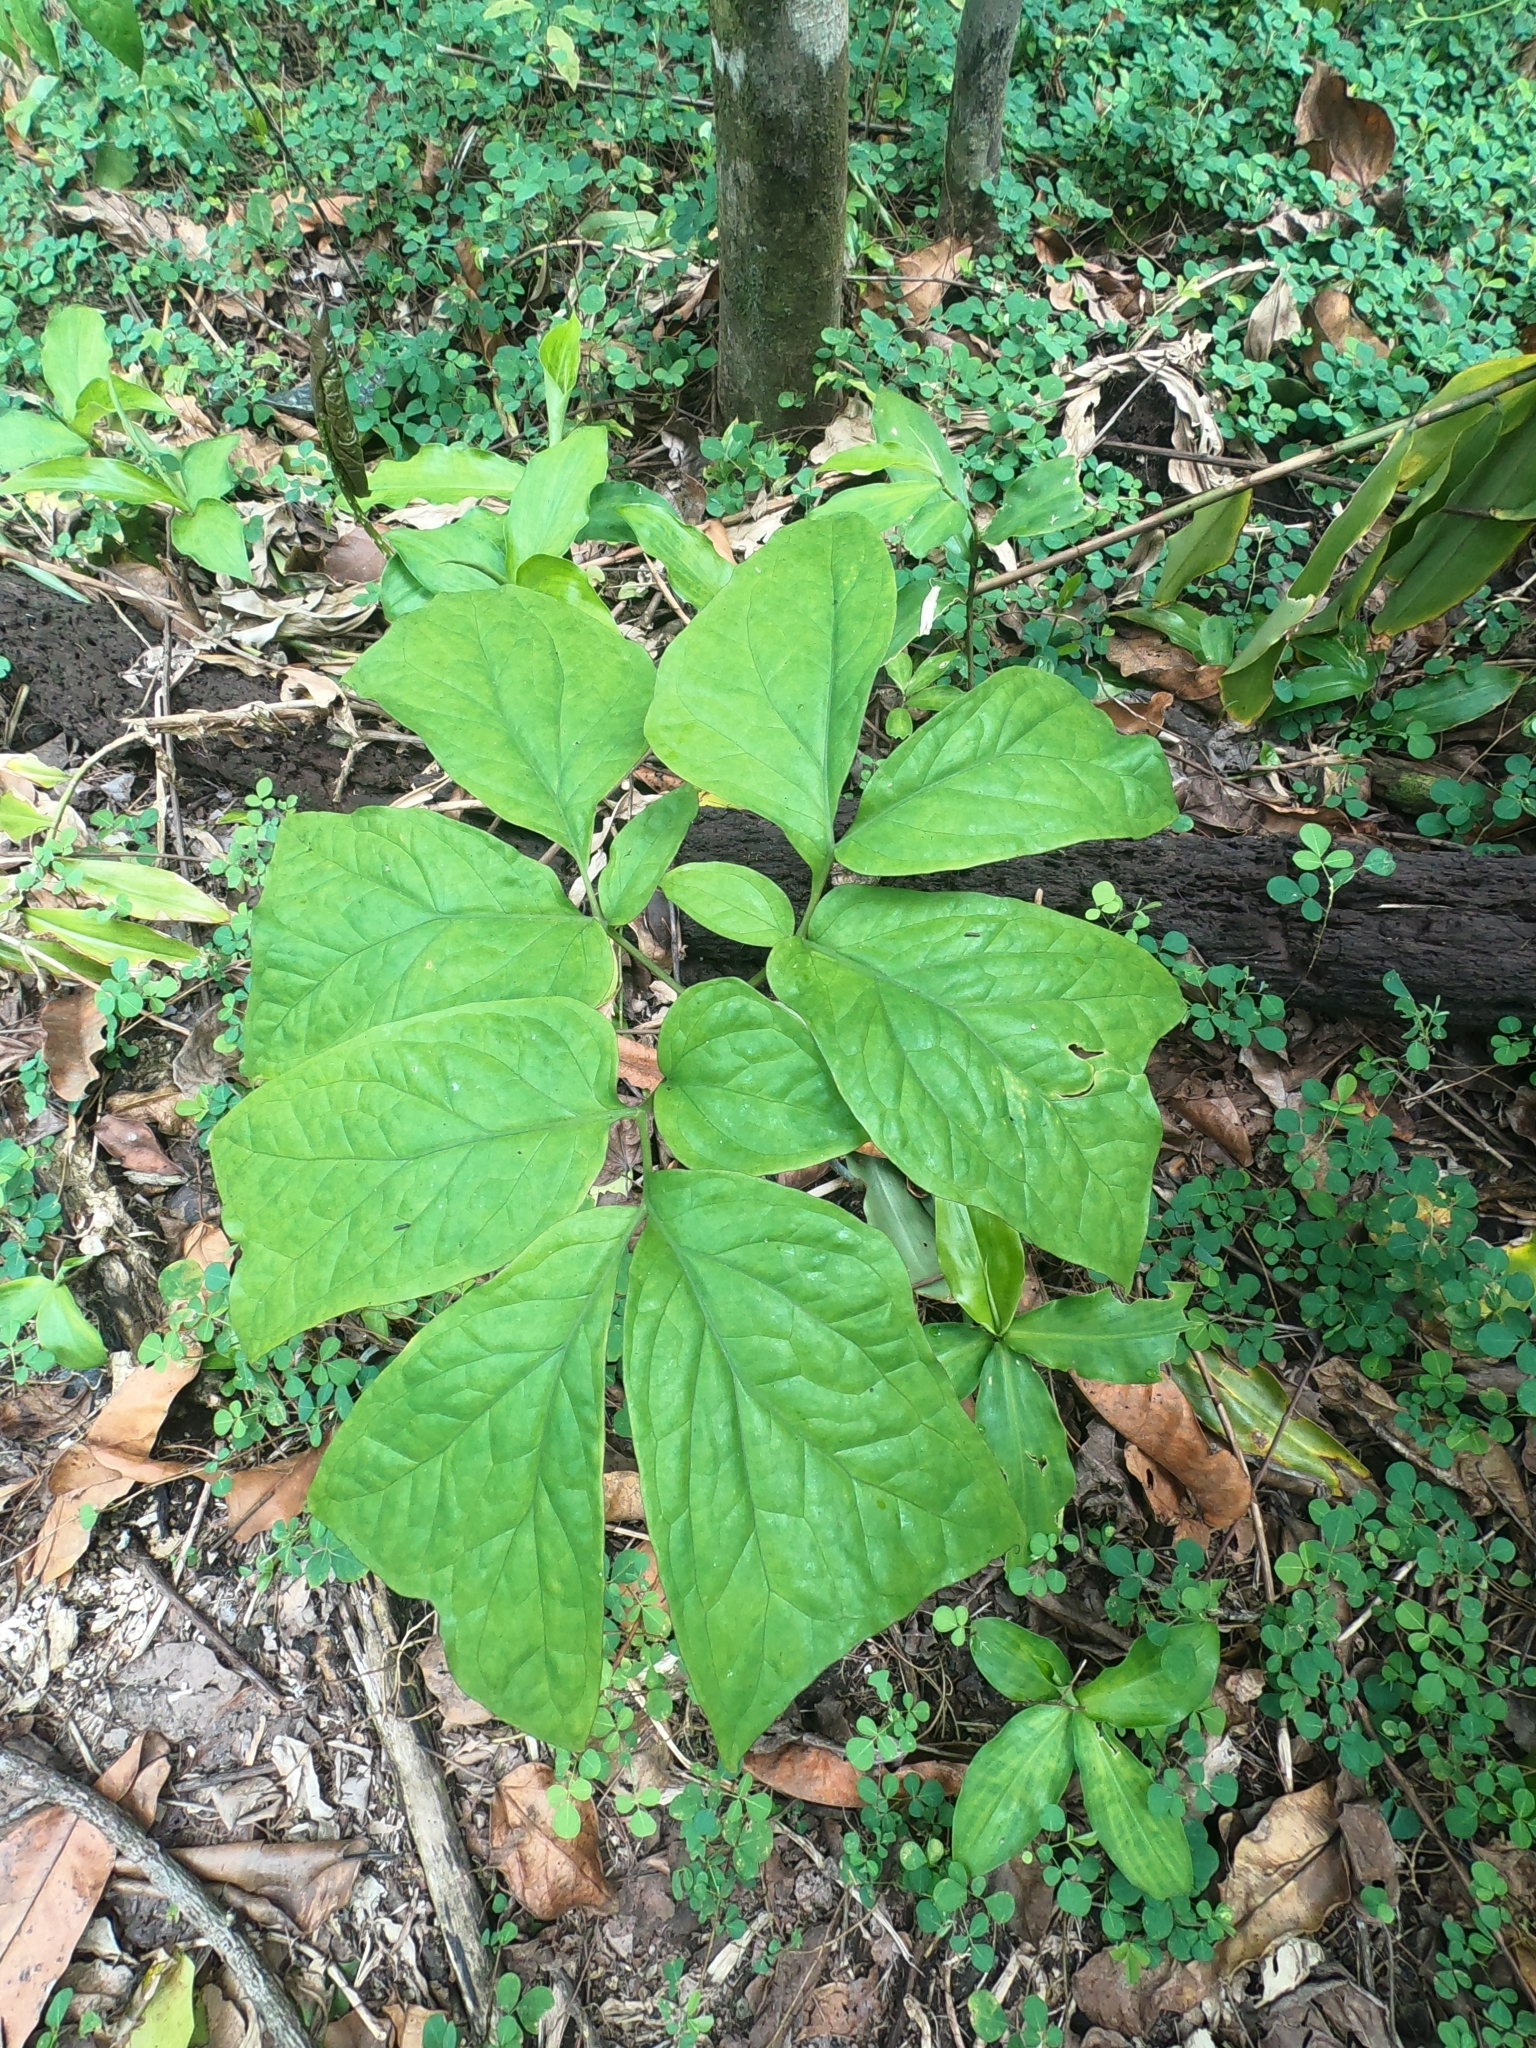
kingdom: Plantae
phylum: Tracheophyta
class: Liliopsida
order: Alismatales
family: Araceae
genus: Anchomanes
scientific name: Anchomanes difformis
